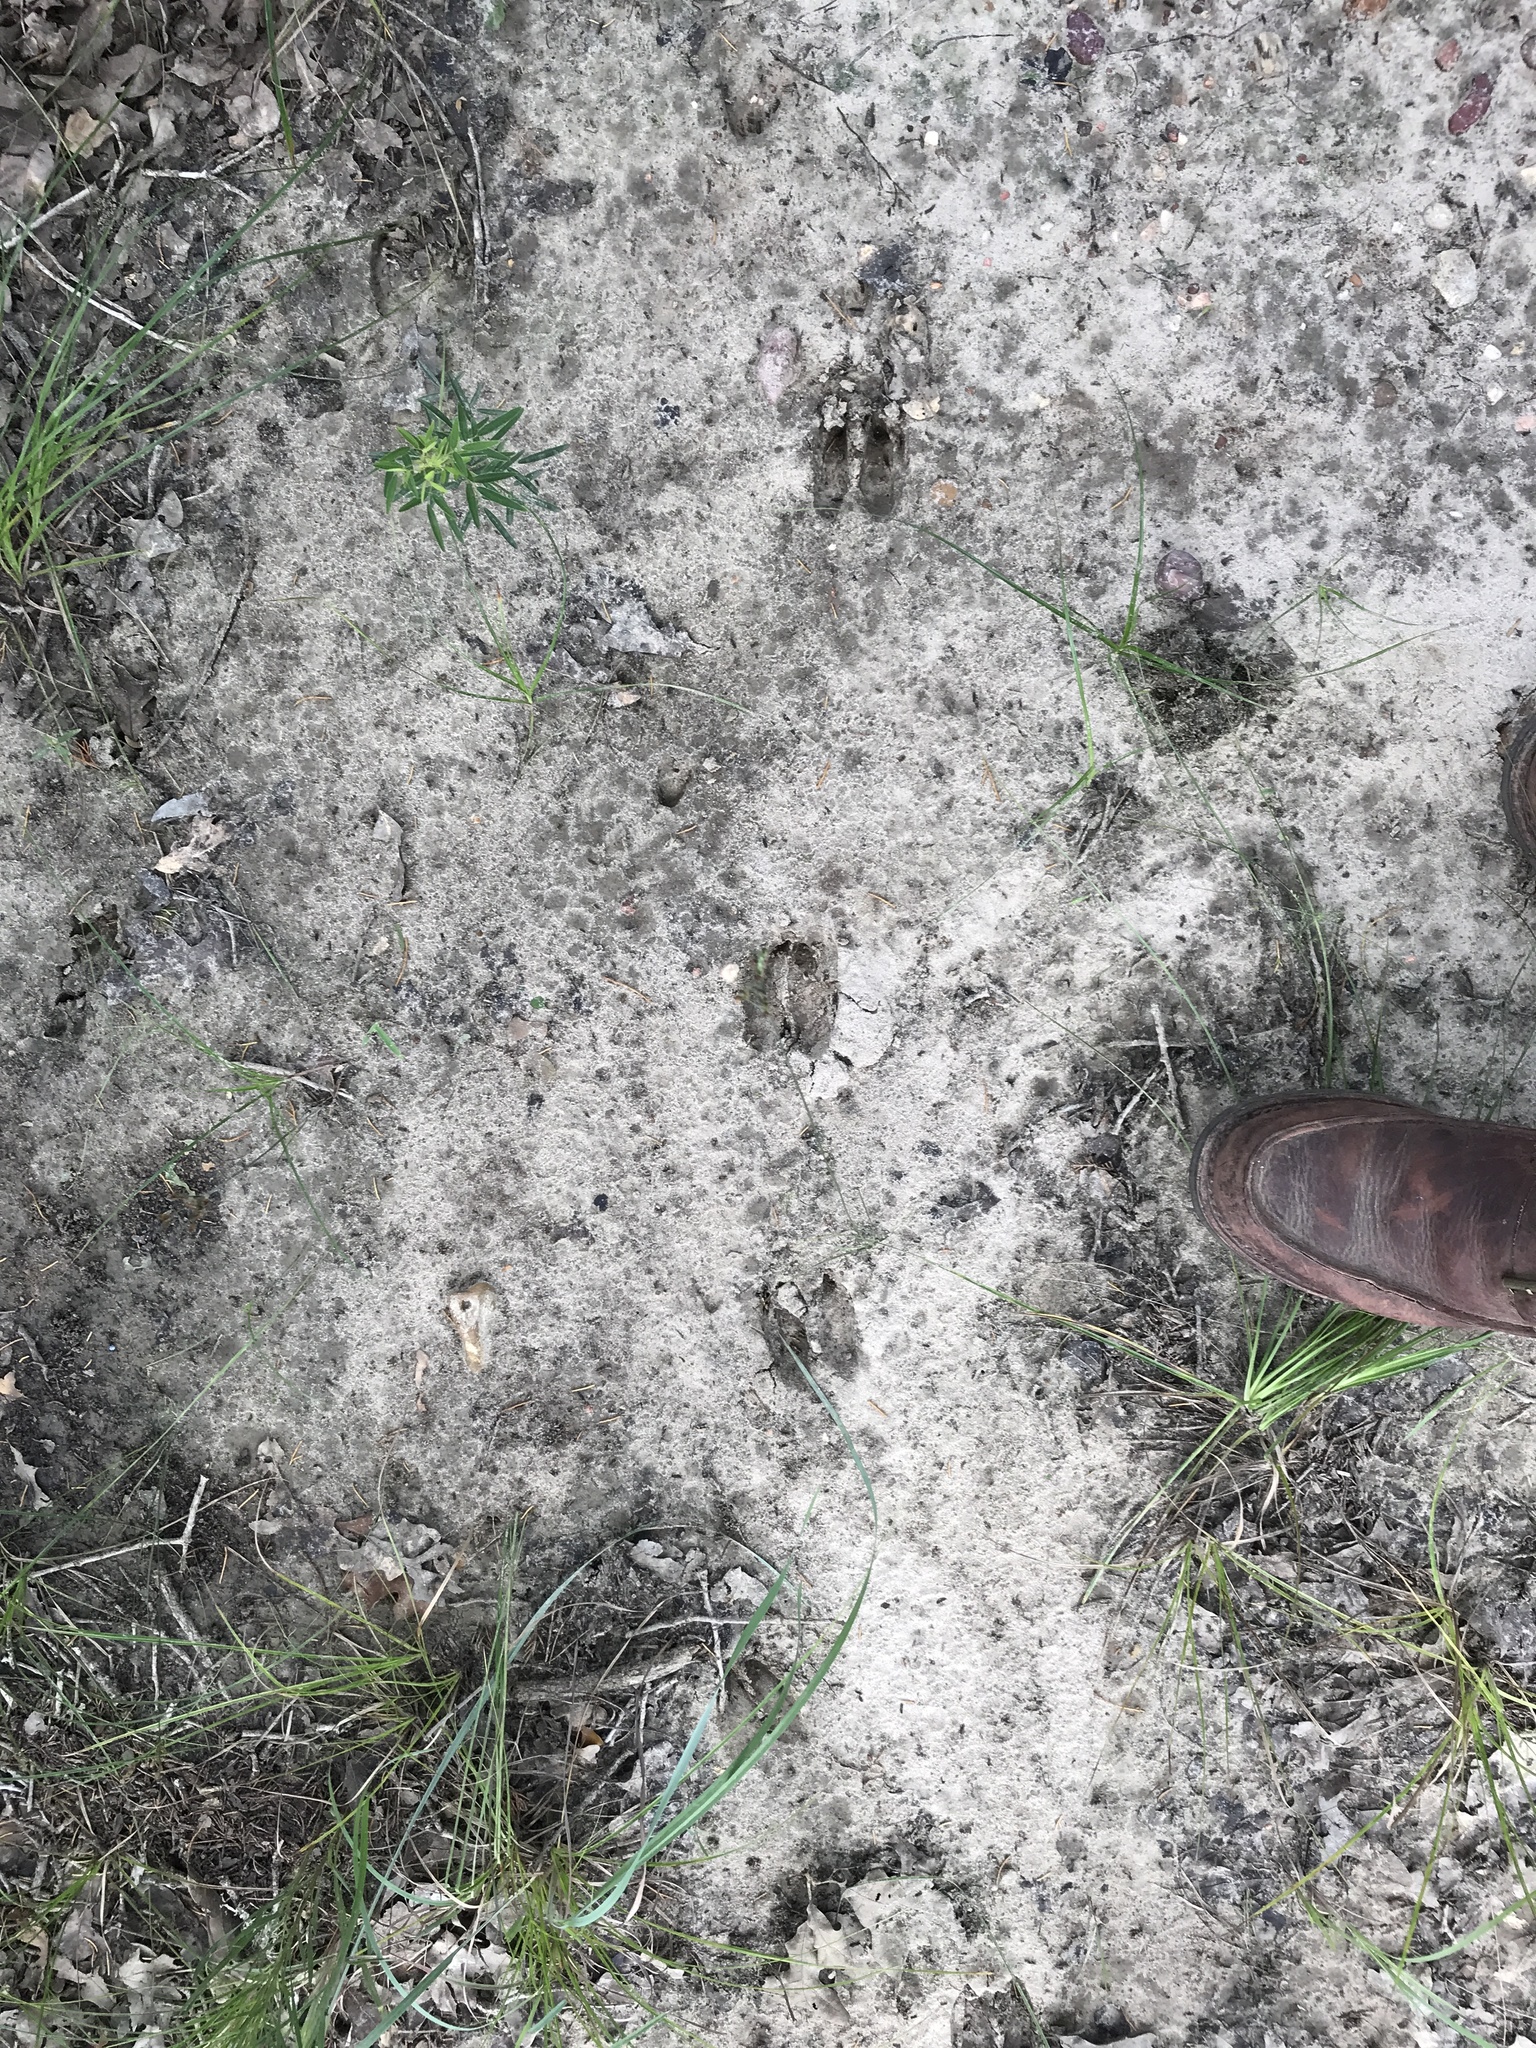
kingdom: Animalia
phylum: Chordata
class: Mammalia
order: Artiodactyla
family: Cervidae
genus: Odocoileus
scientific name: Odocoileus virginianus
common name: White-tailed deer
